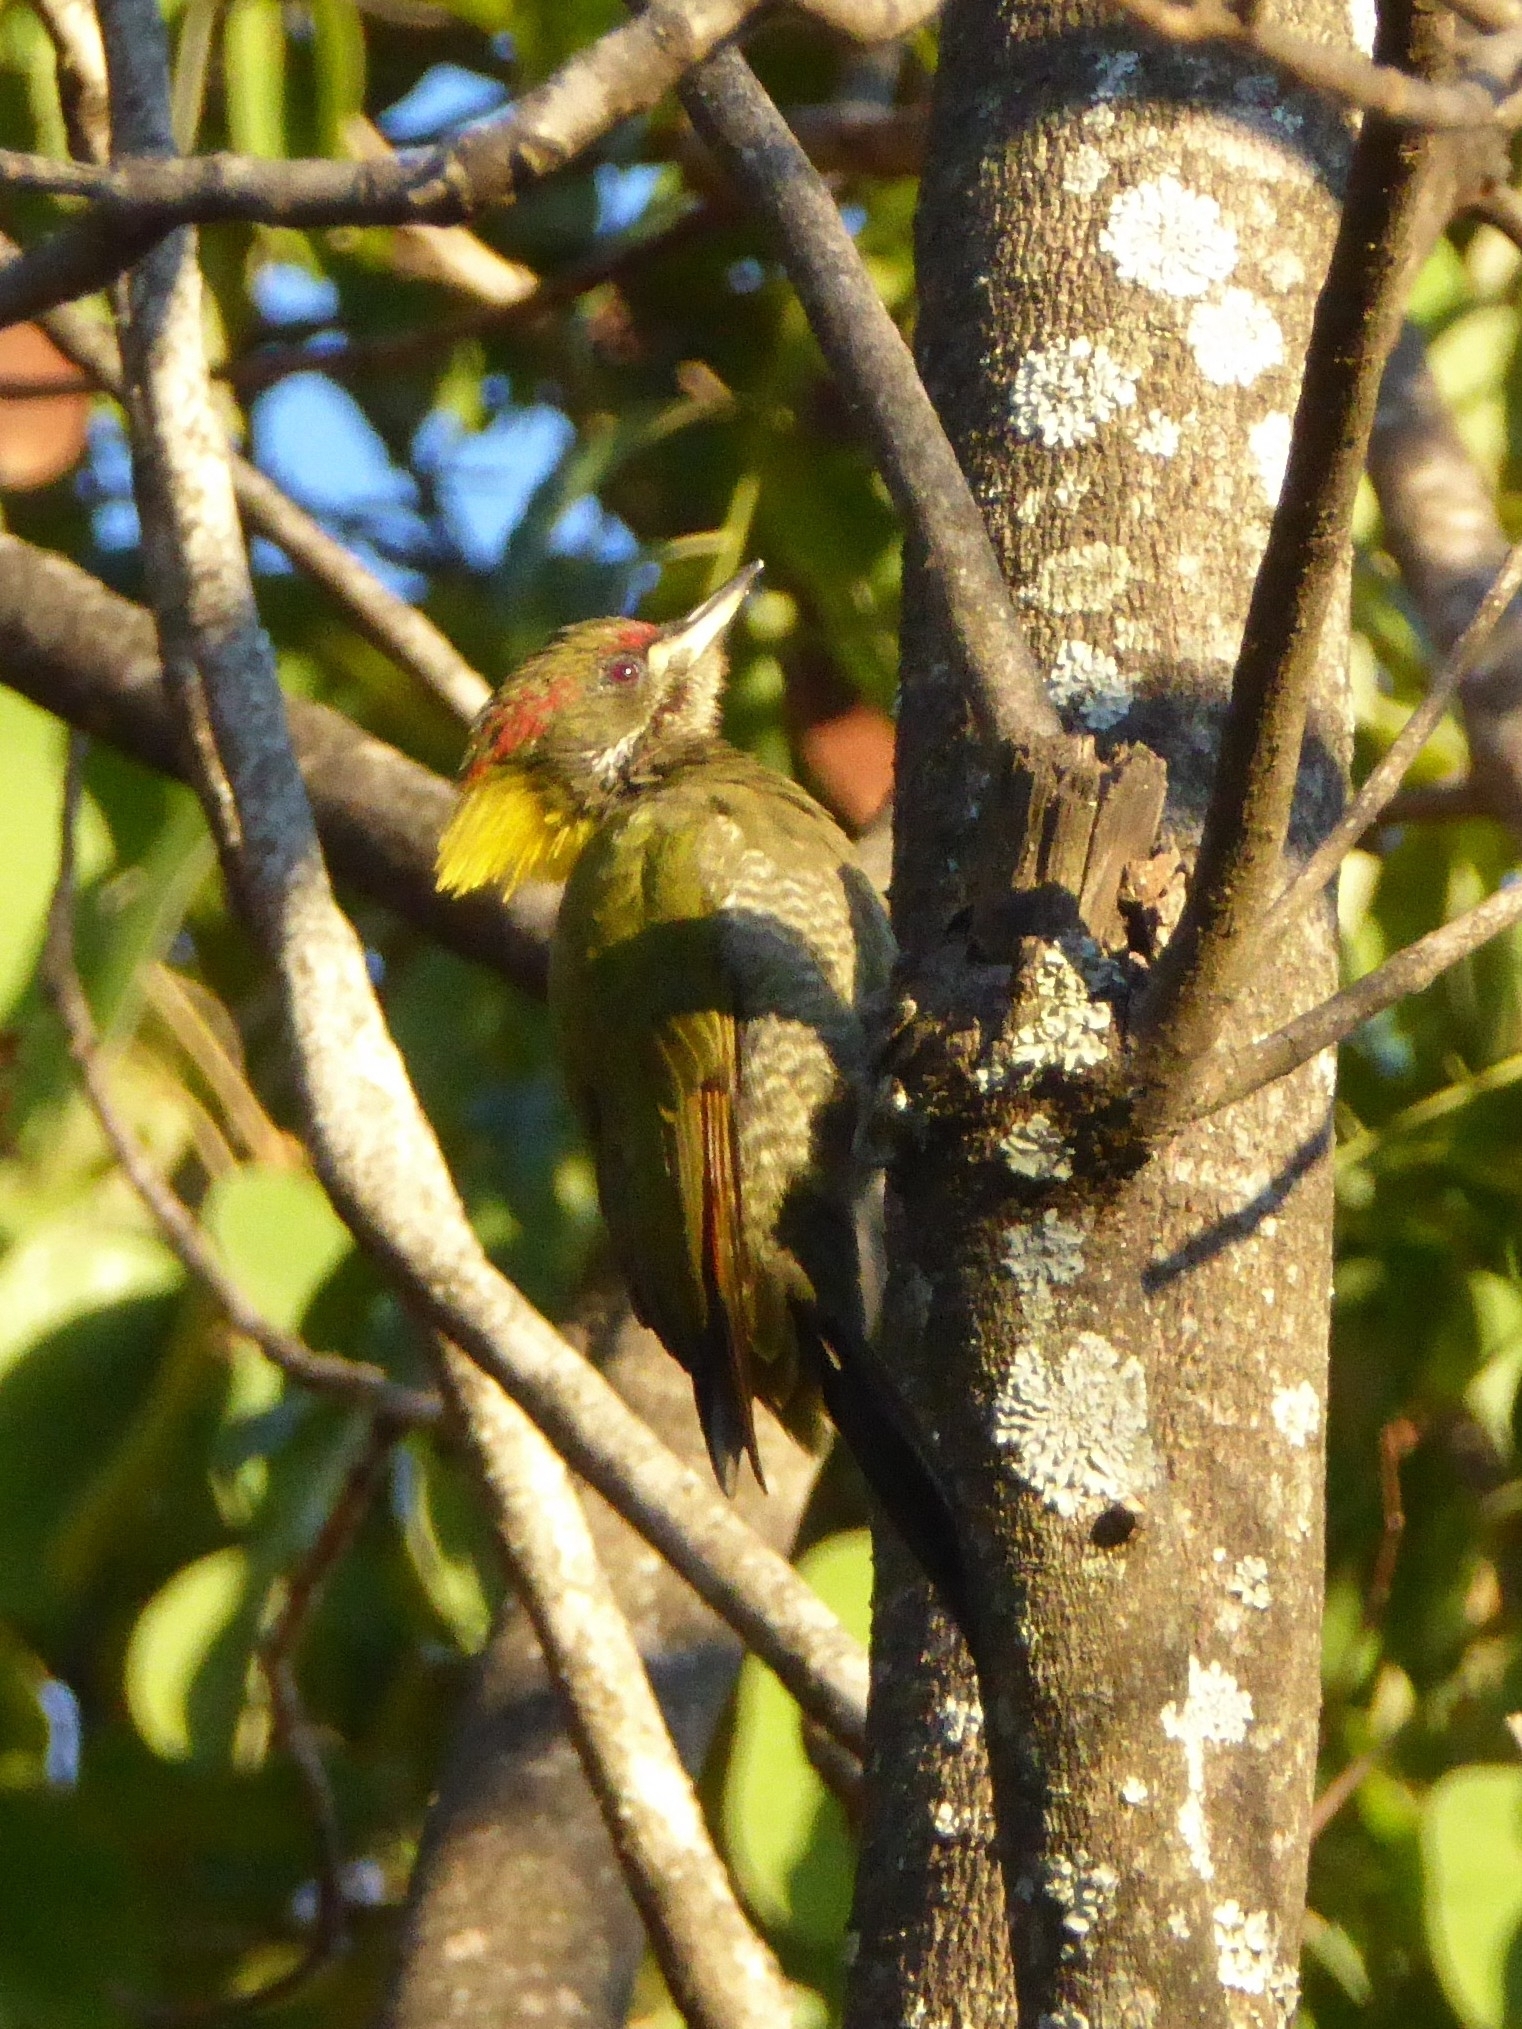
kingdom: Animalia
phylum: Chordata
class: Aves
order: Piciformes
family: Picidae
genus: Picus
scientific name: Picus chlorolophus
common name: Lesser yellownape
